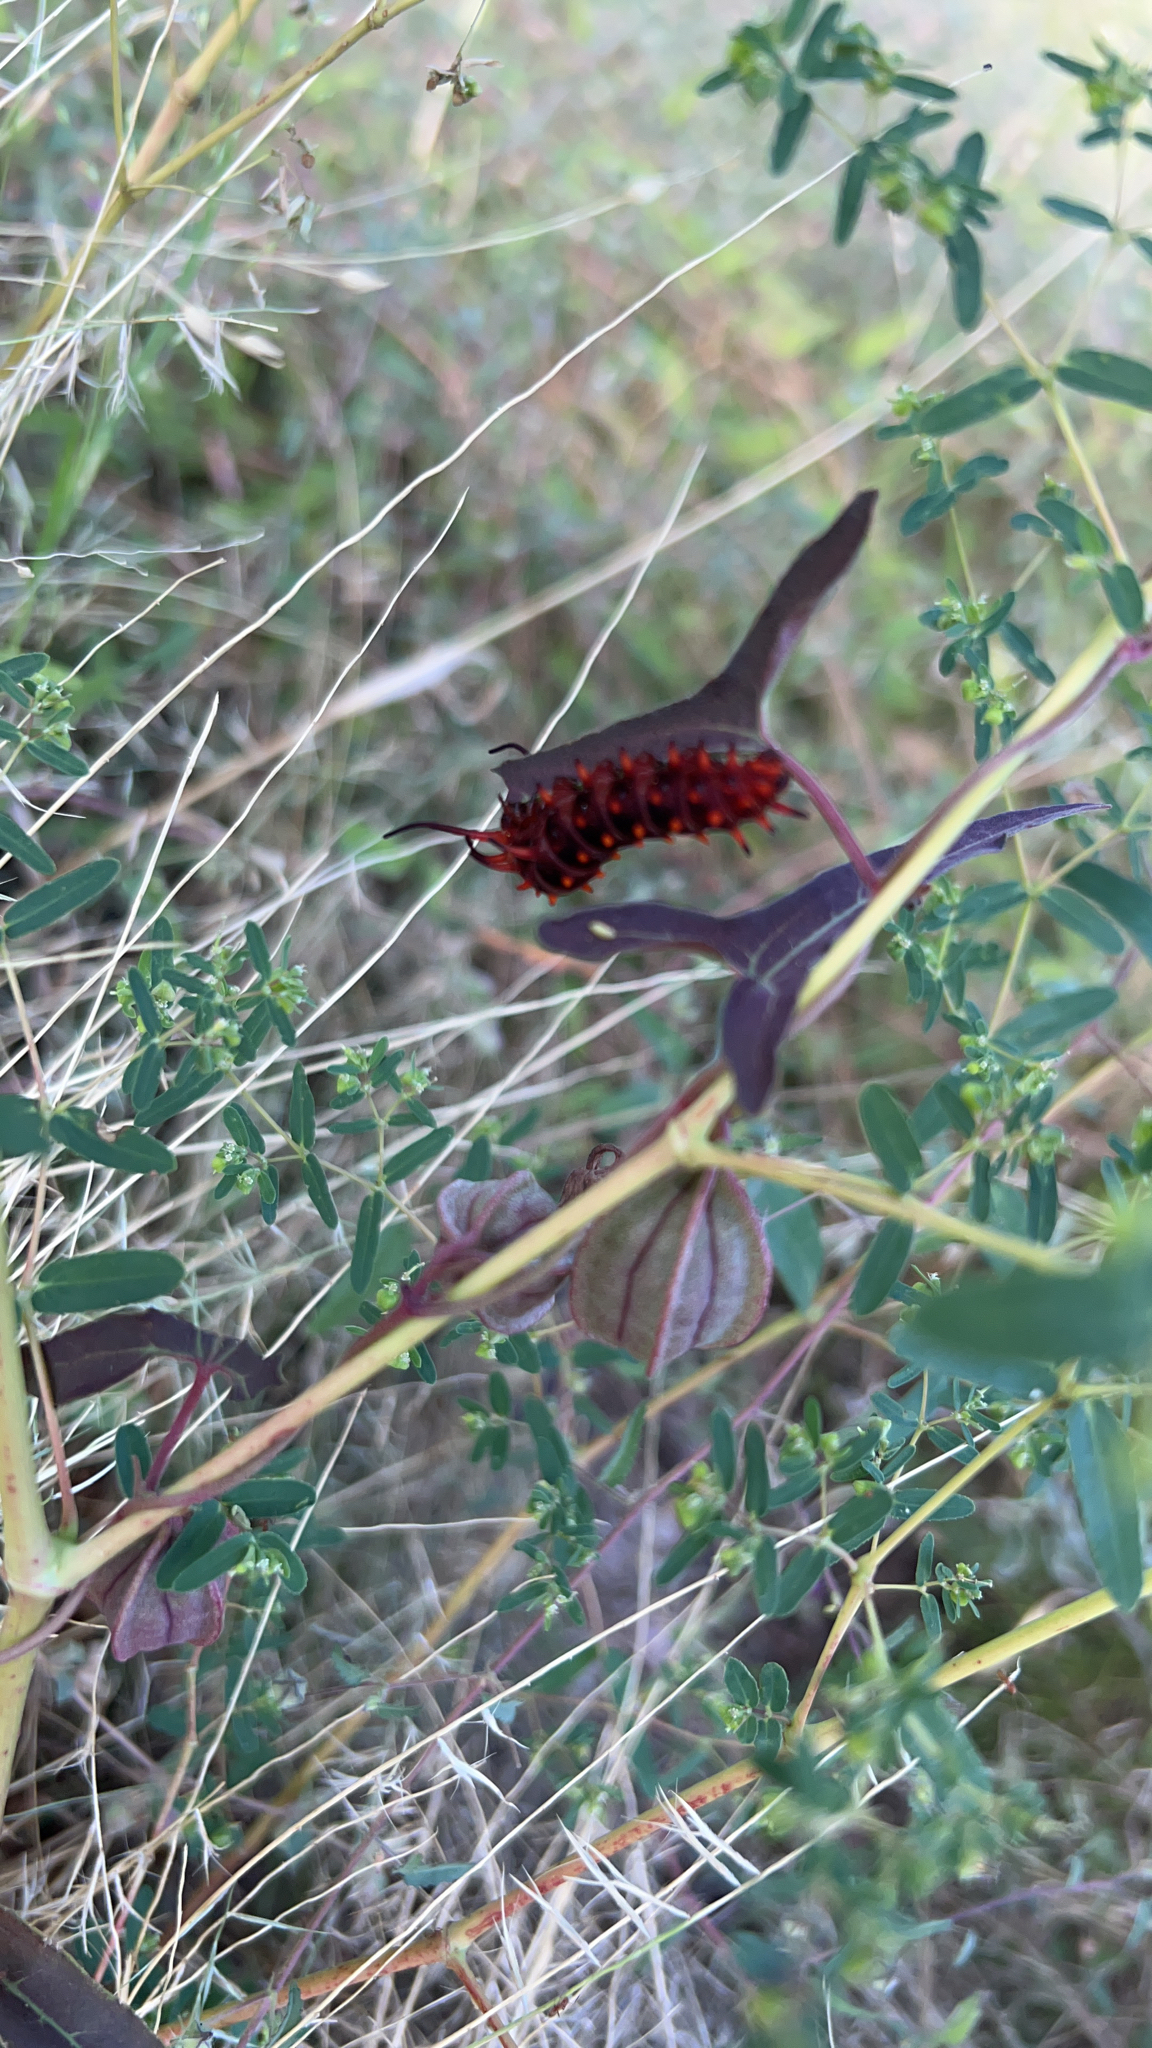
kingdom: Animalia
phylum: Arthropoda
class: Insecta
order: Lepidoptera
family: Papilionidae
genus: Battus
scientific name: Battus philenor
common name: Pipevine swallowtail
